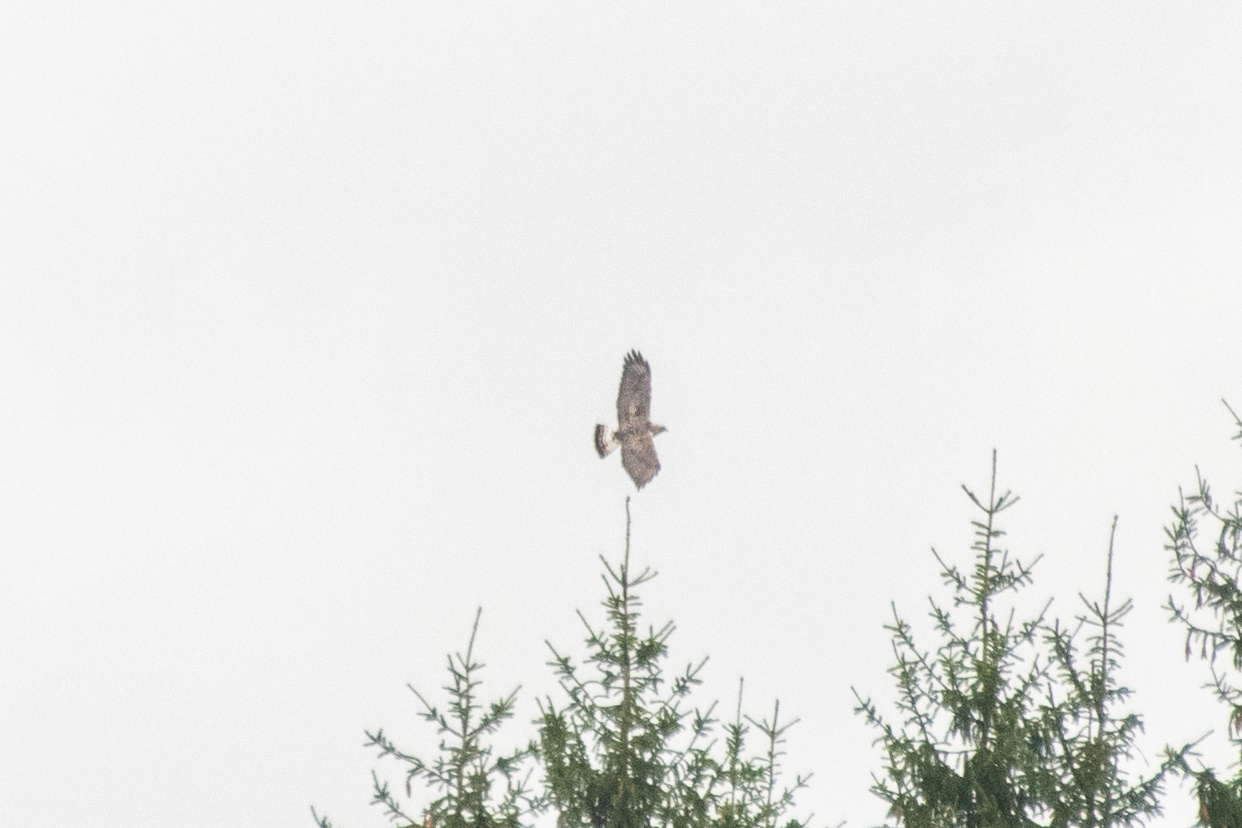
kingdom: Animalia
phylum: Chordata
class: Aves
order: Accipitriformes
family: Accipitridae
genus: Buteo
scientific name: Buteo lagopus
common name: Rough-legged buzzard
